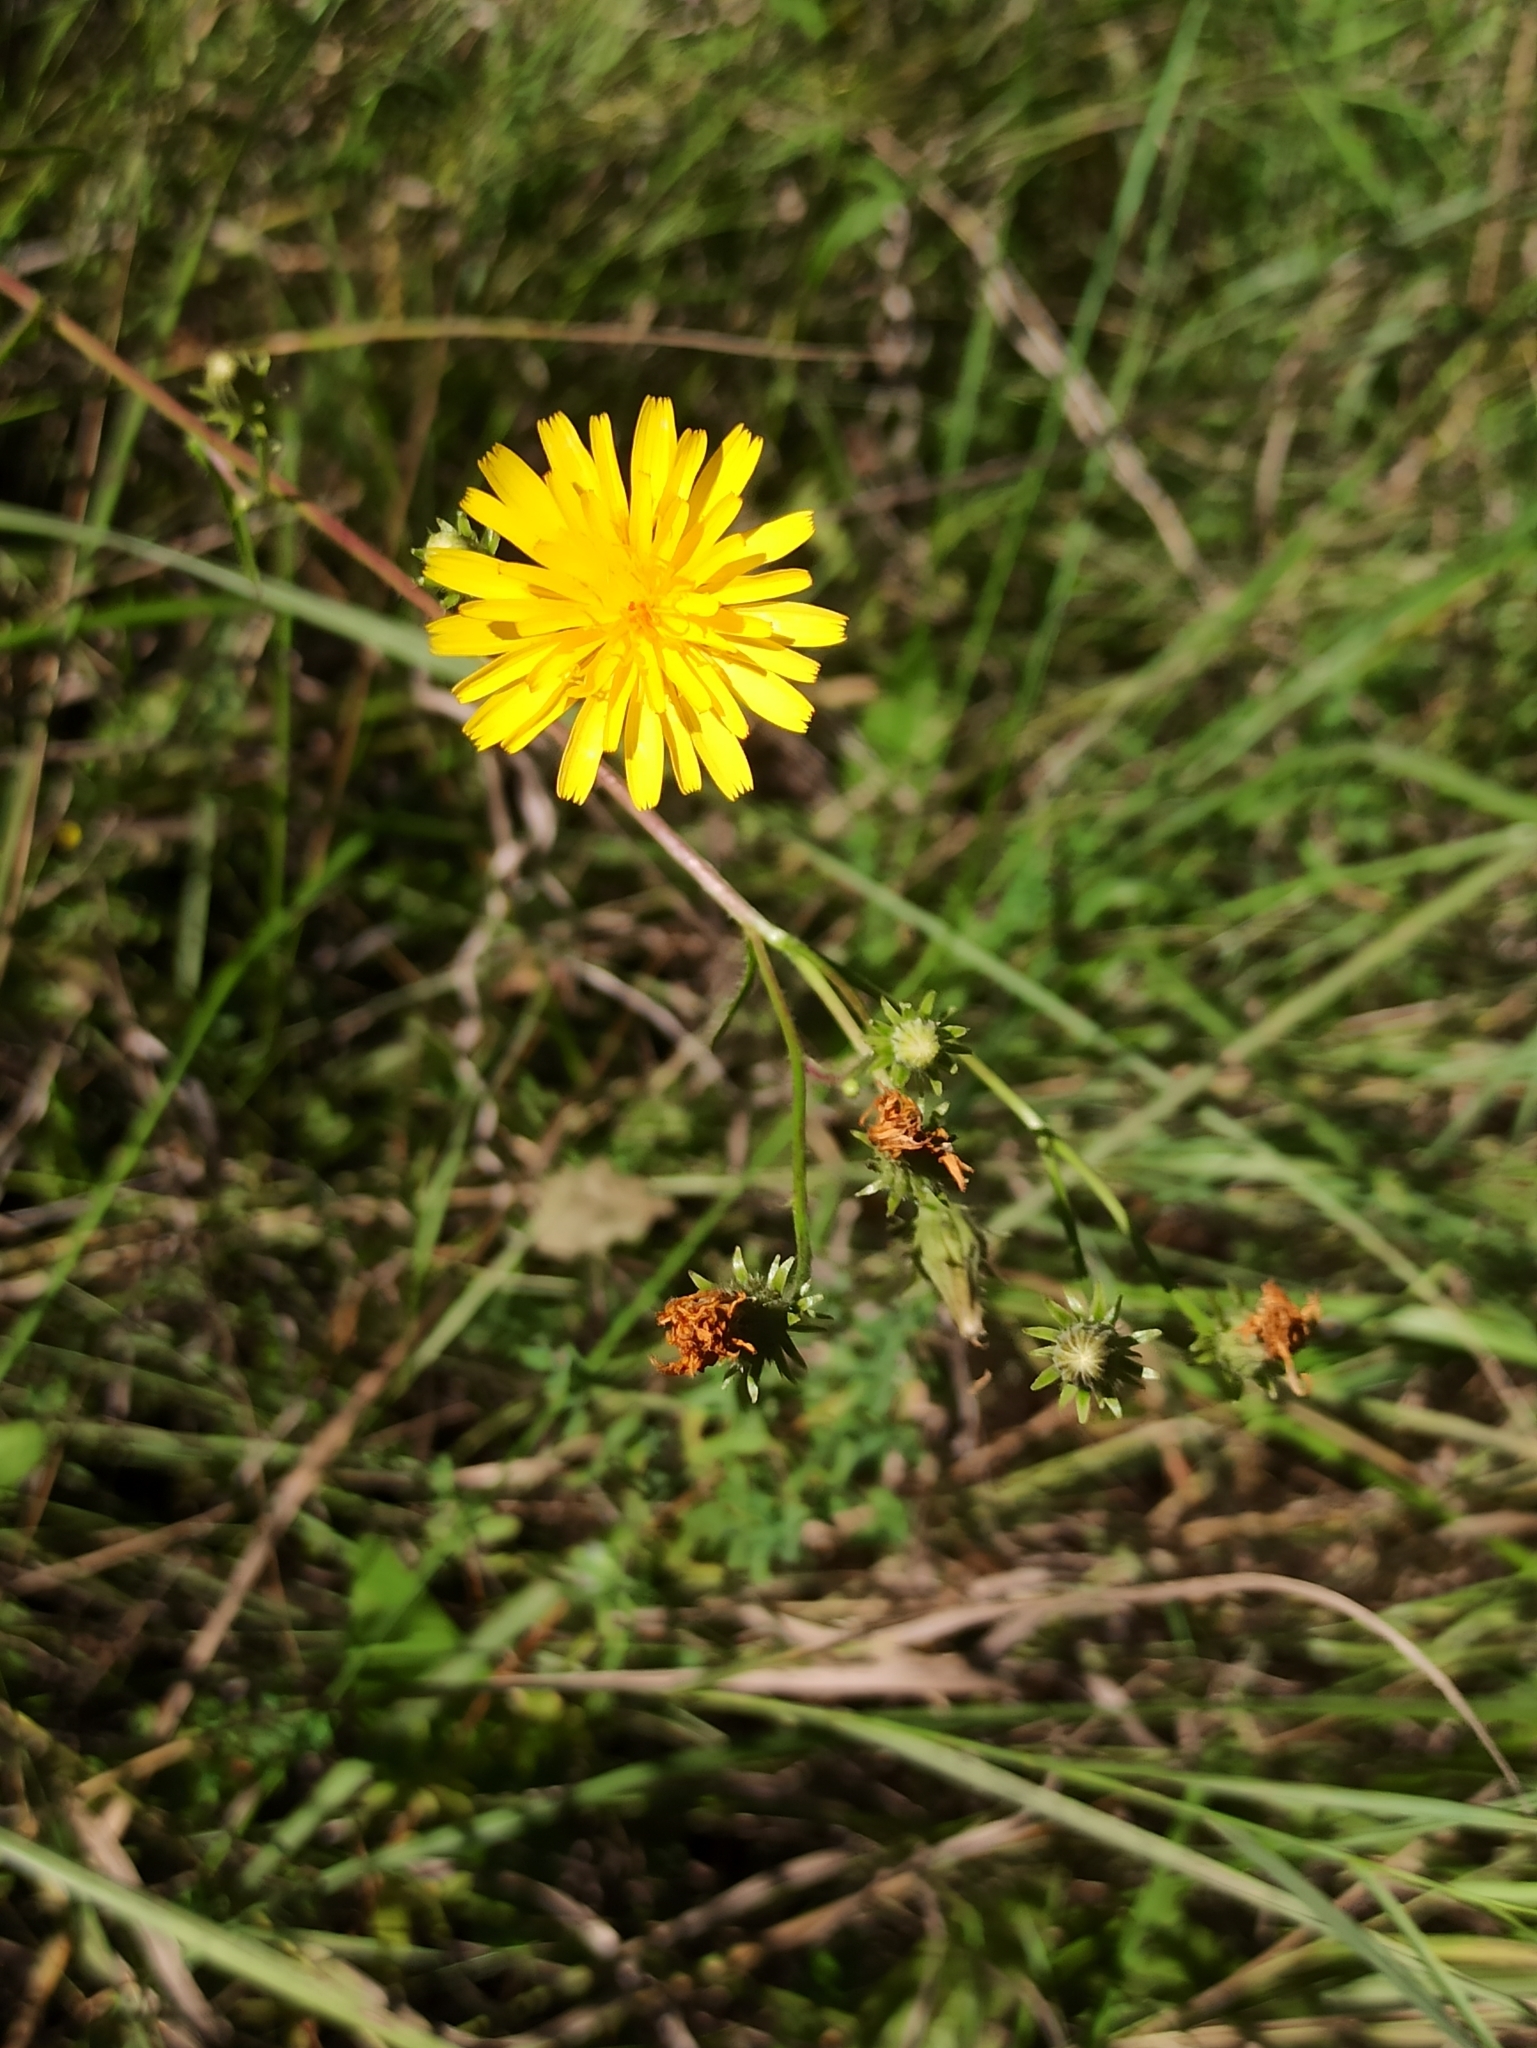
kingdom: Plantae
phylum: Tracheophyta
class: Magnoliopsida
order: Asterales
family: Asteraceae
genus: Picris
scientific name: Picris hieracioides
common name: Hawkweed oxtongue
